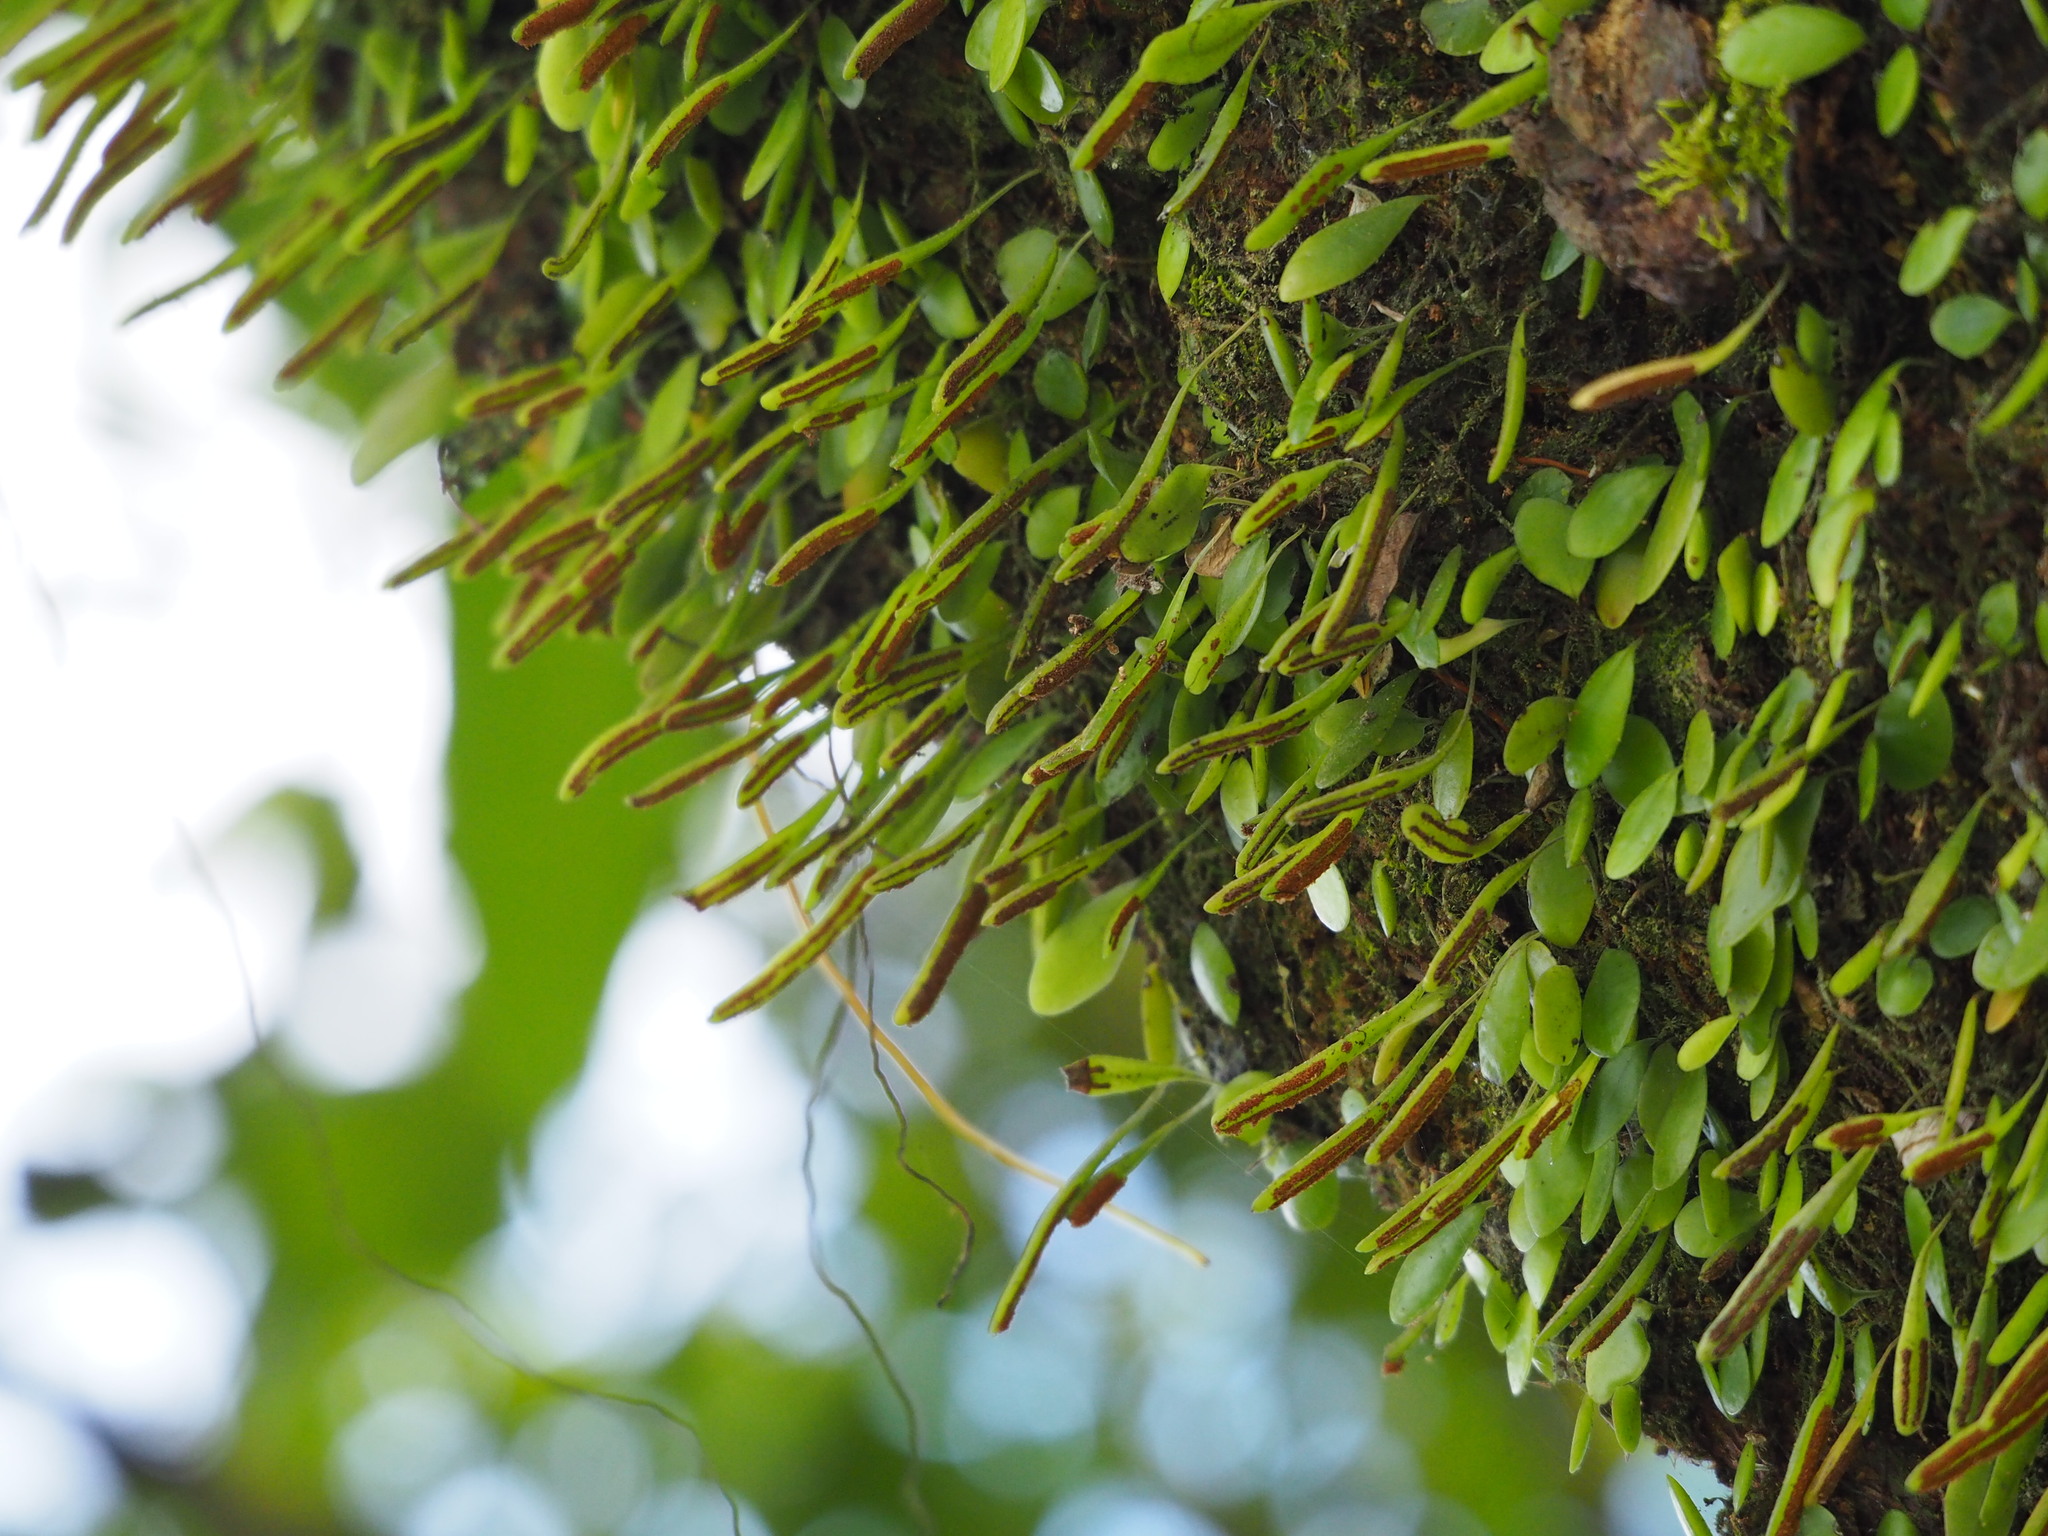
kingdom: Plantae
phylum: Tracheophyta
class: Polypodiopsida
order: Polypodiales
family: Polypodiaceae
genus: Lepisorus
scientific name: Lepisorus microphyllus
